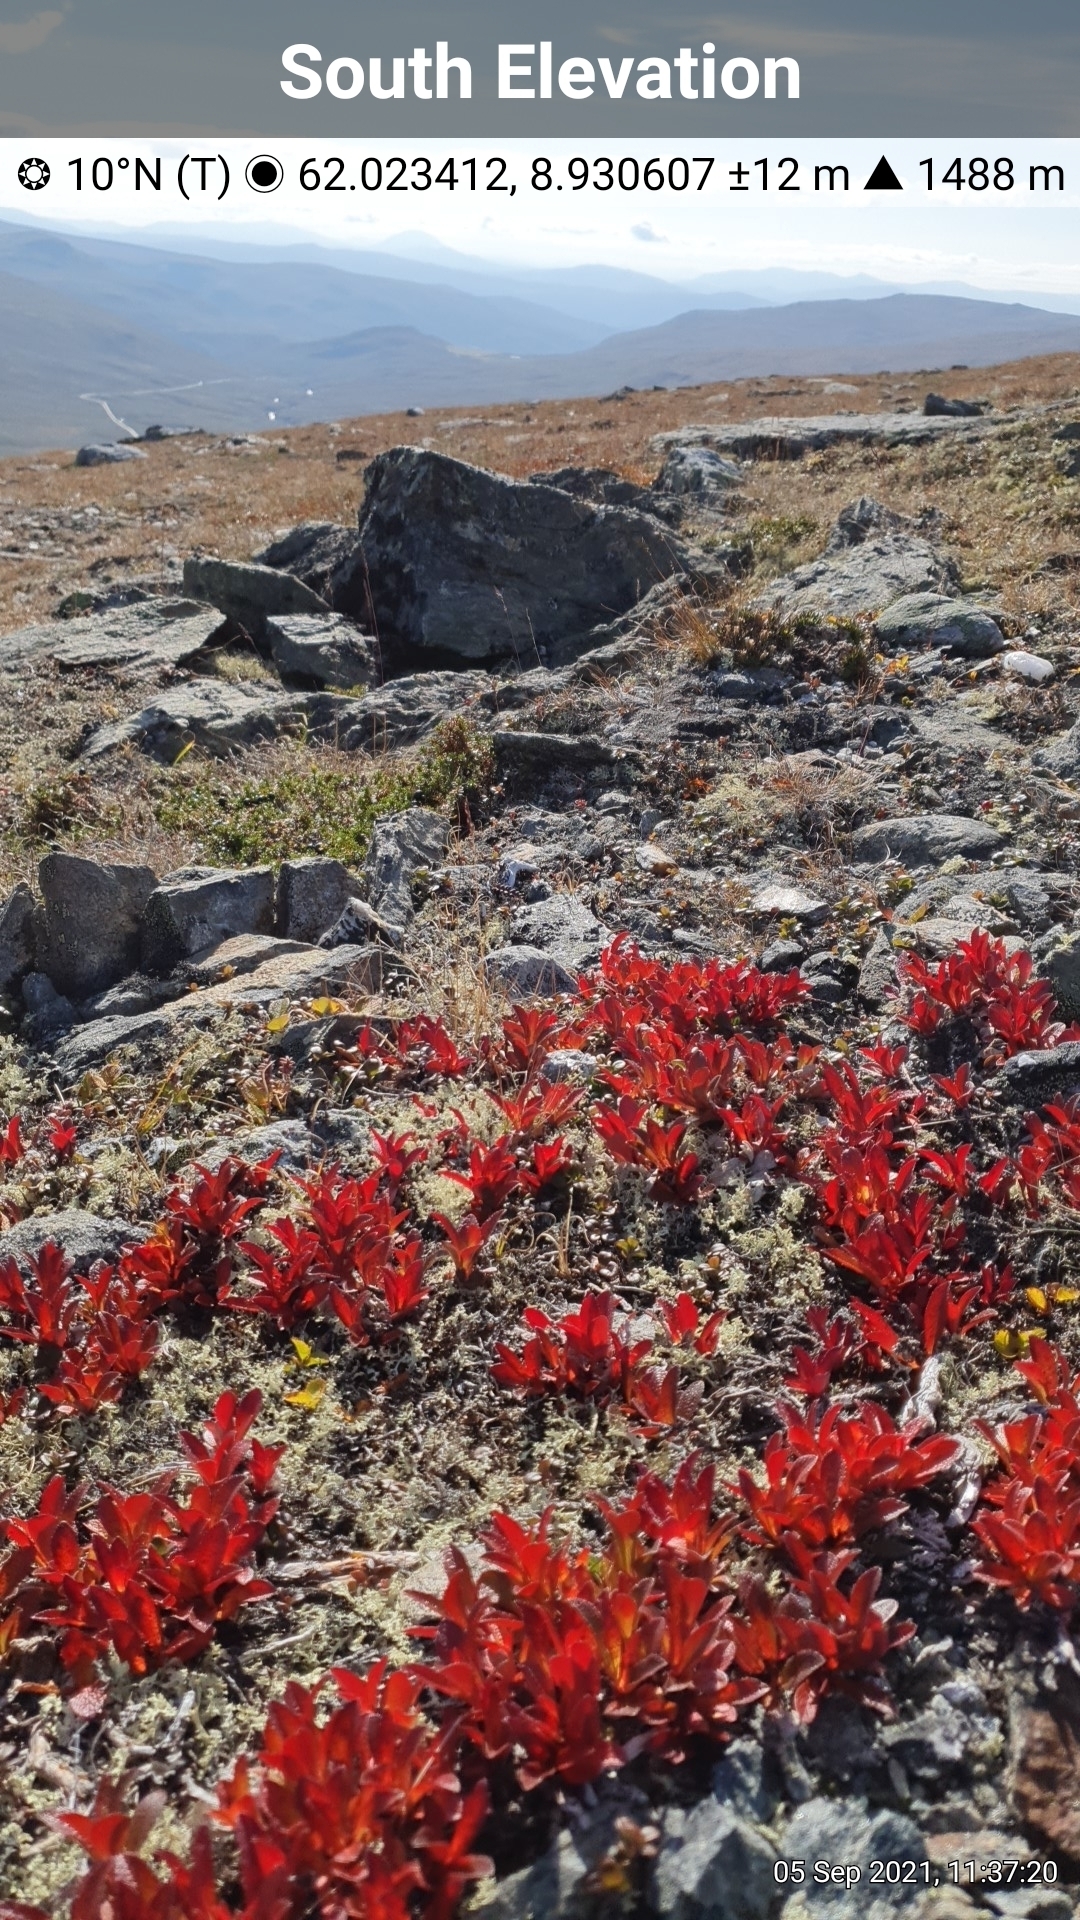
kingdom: Plantae
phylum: Tracheophyta
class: Magnoliopsida
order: Ericales
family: Ericaceae
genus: Arctostaphylos
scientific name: Arctostaphylos alpinus
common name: Alpine bearberry
